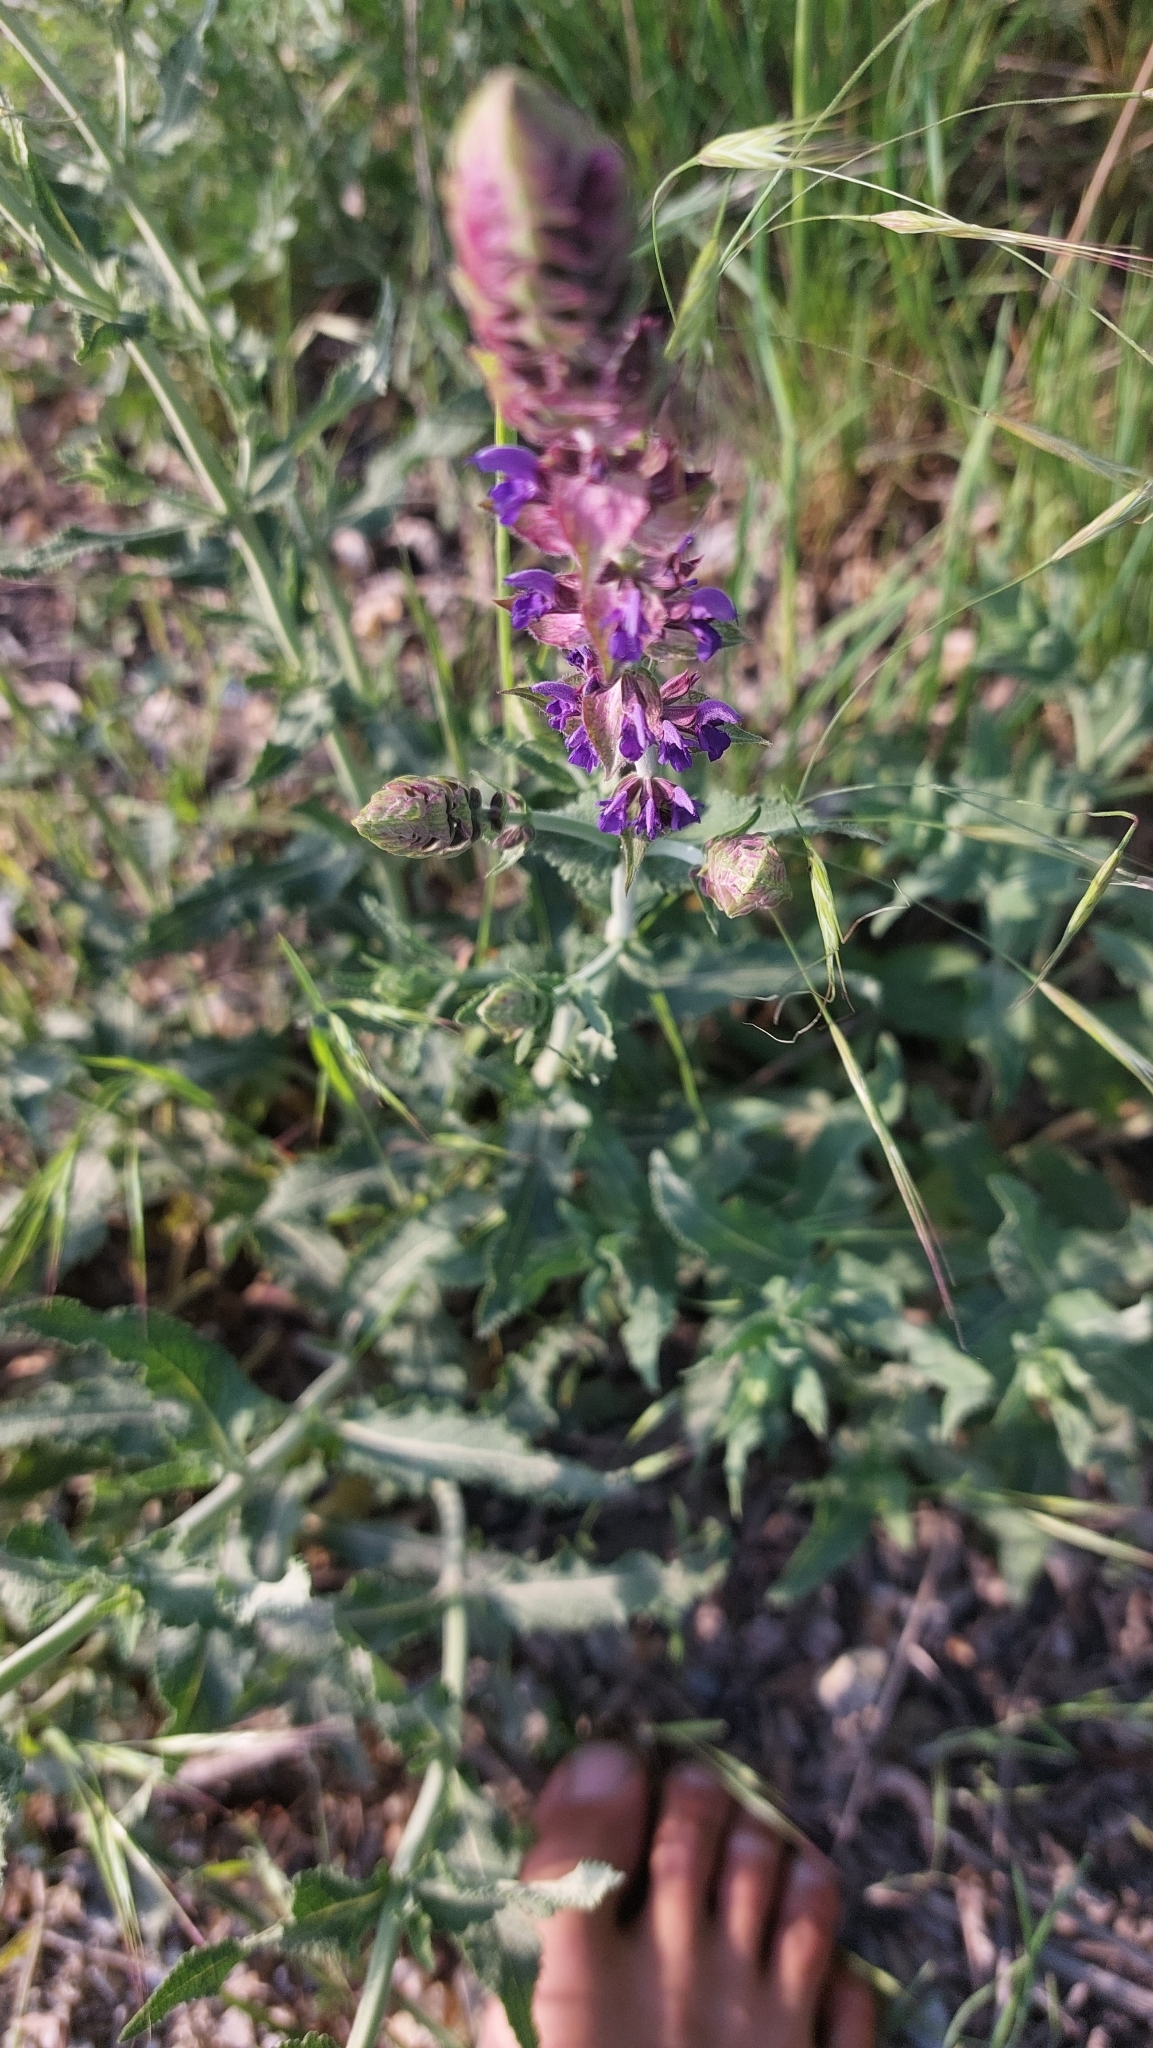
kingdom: Plantae
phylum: Tracheophyta
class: Magnoliopsida
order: Lamiales
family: Lamiaceae
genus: Salvia
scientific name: Salvia nemorosa
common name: Balkan clary
